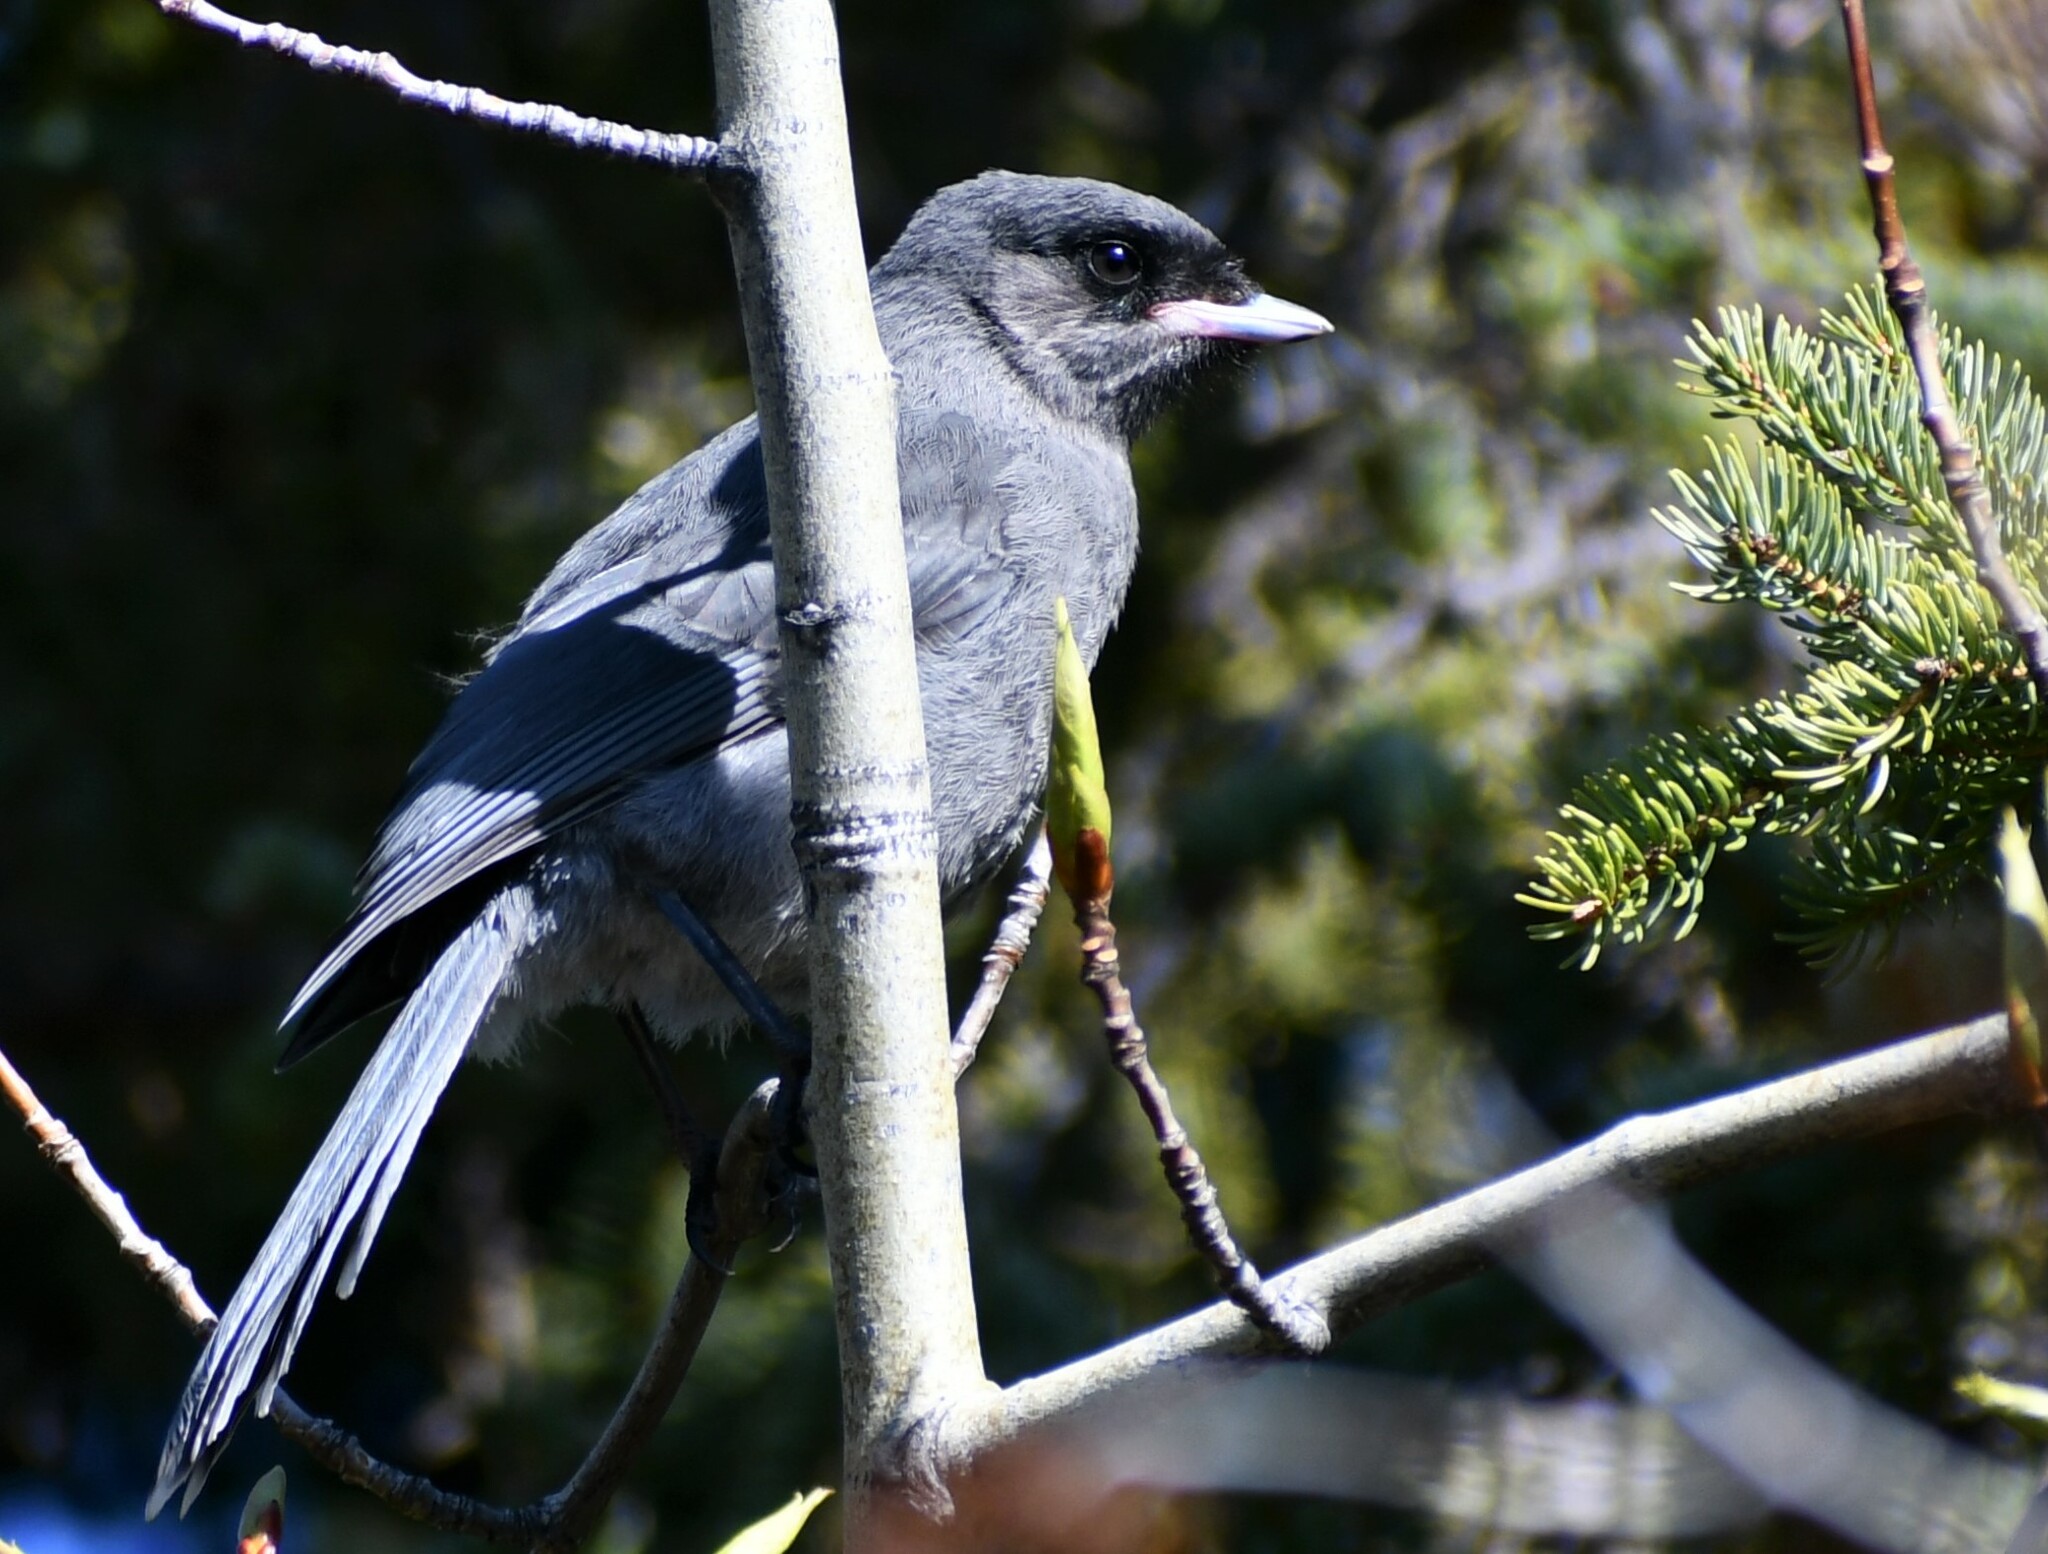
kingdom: Animalia
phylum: Chordata
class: Aves
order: Passeriformes
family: Corvidae
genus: Perisoreus
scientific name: Perisoreus canadensis
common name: Gray jay
